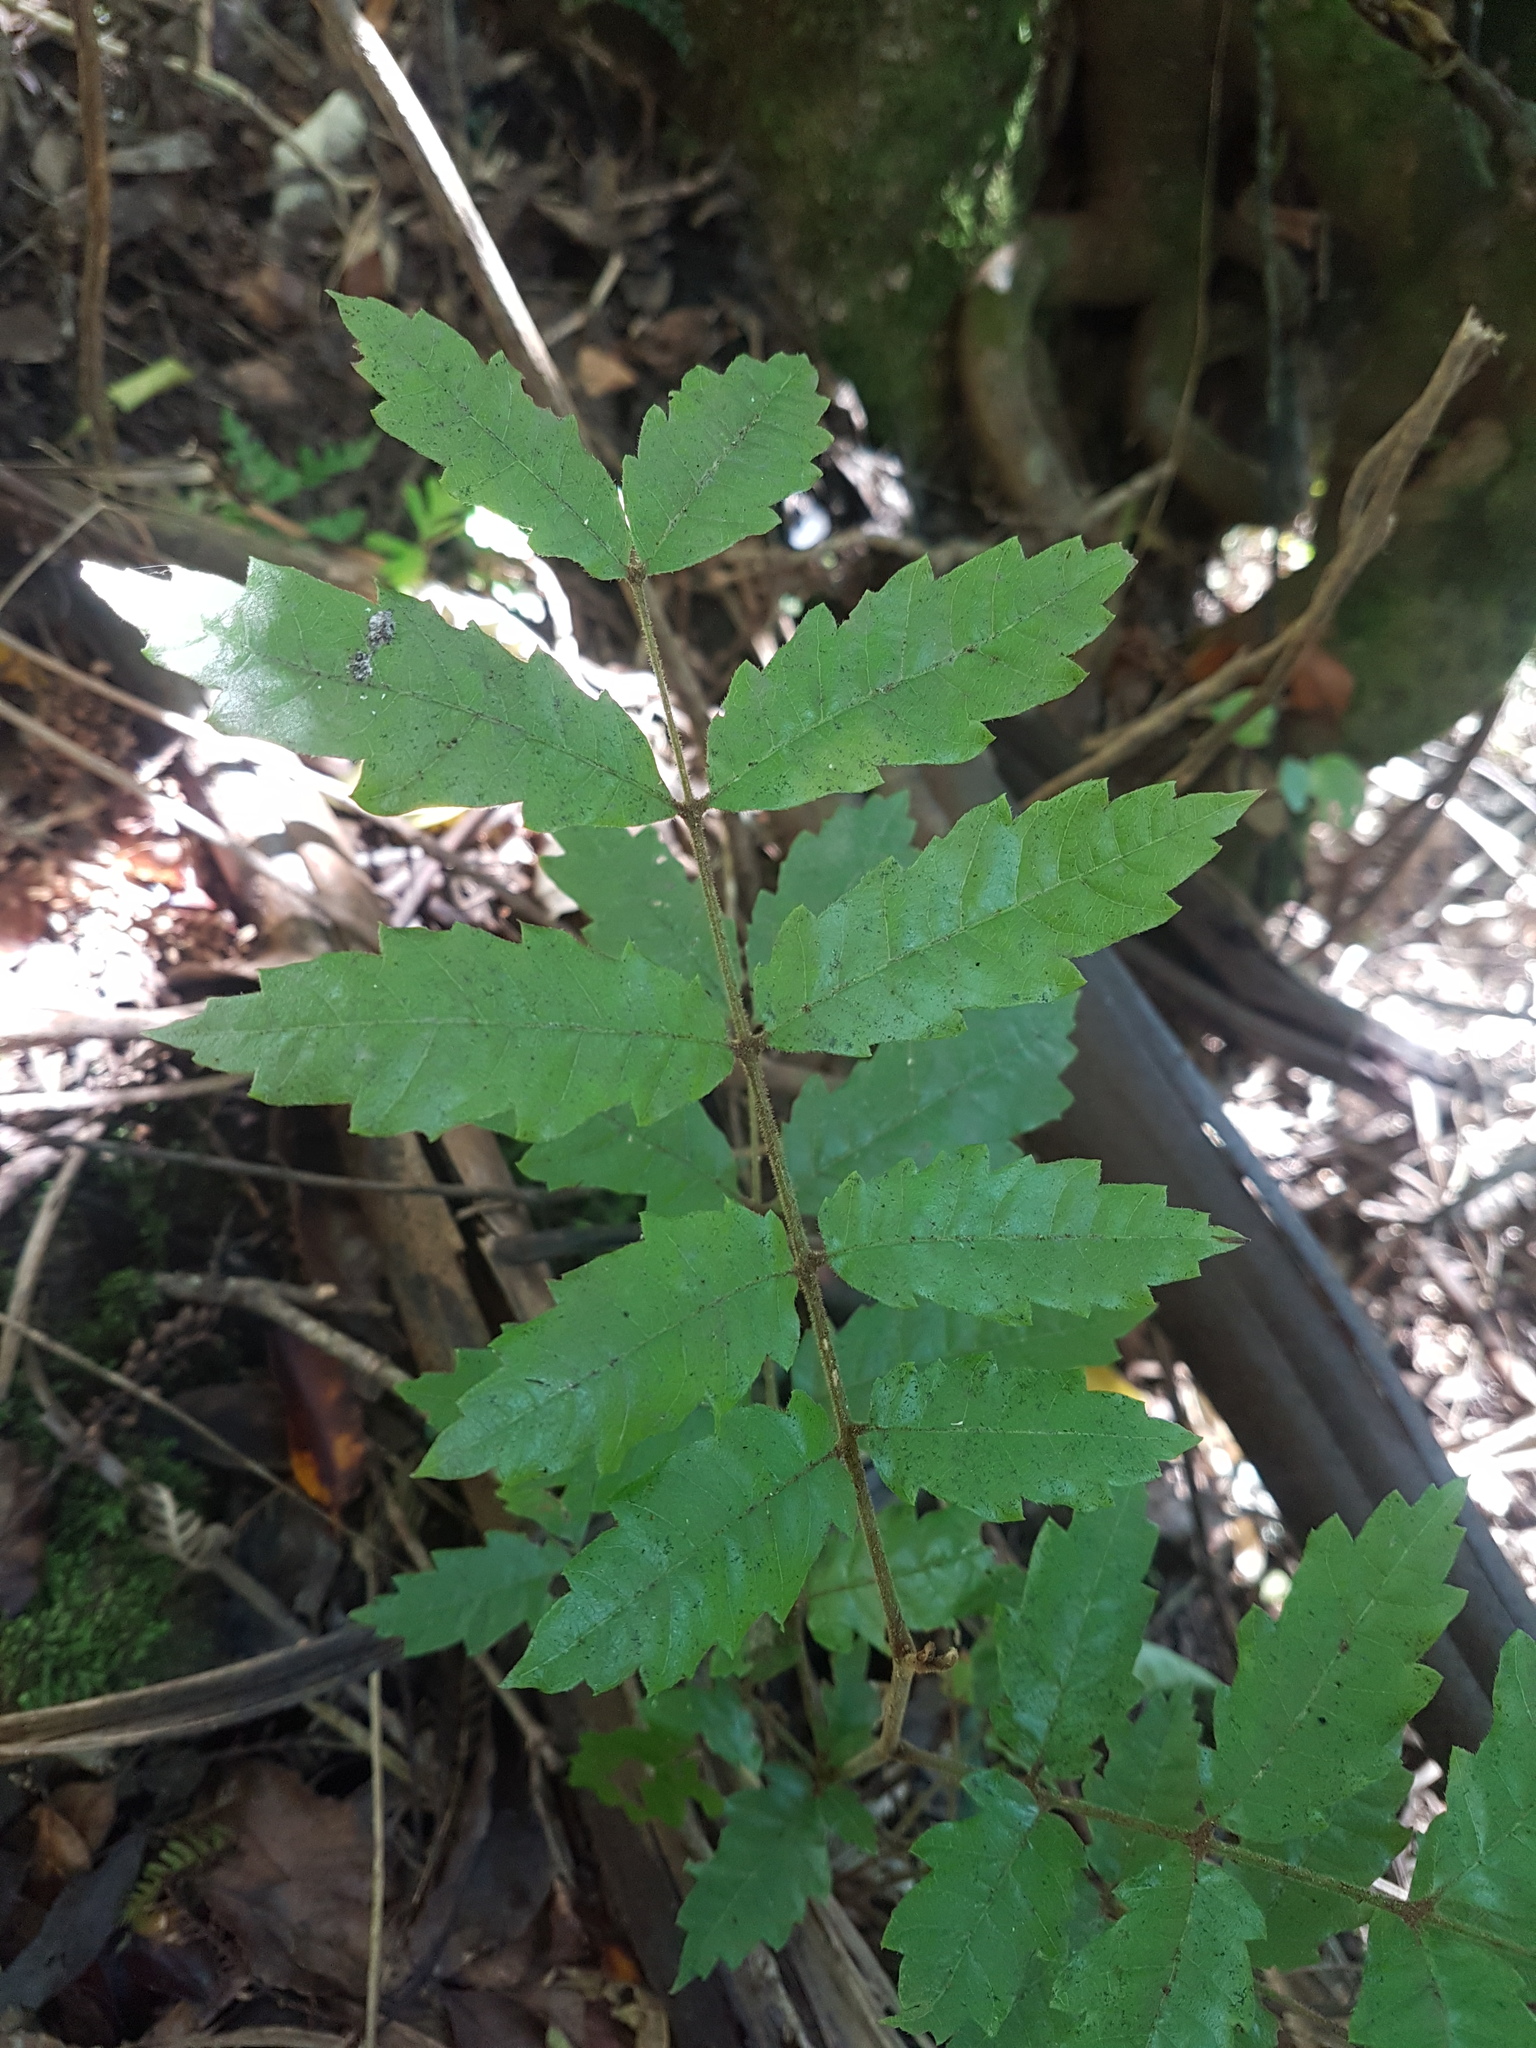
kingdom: Plantae
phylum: Tracheophyta
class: Magnoliopsida
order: Sapindales
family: Sapindaceae
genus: Alectryon
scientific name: Alectryon excelsus
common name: Three kings titoki
